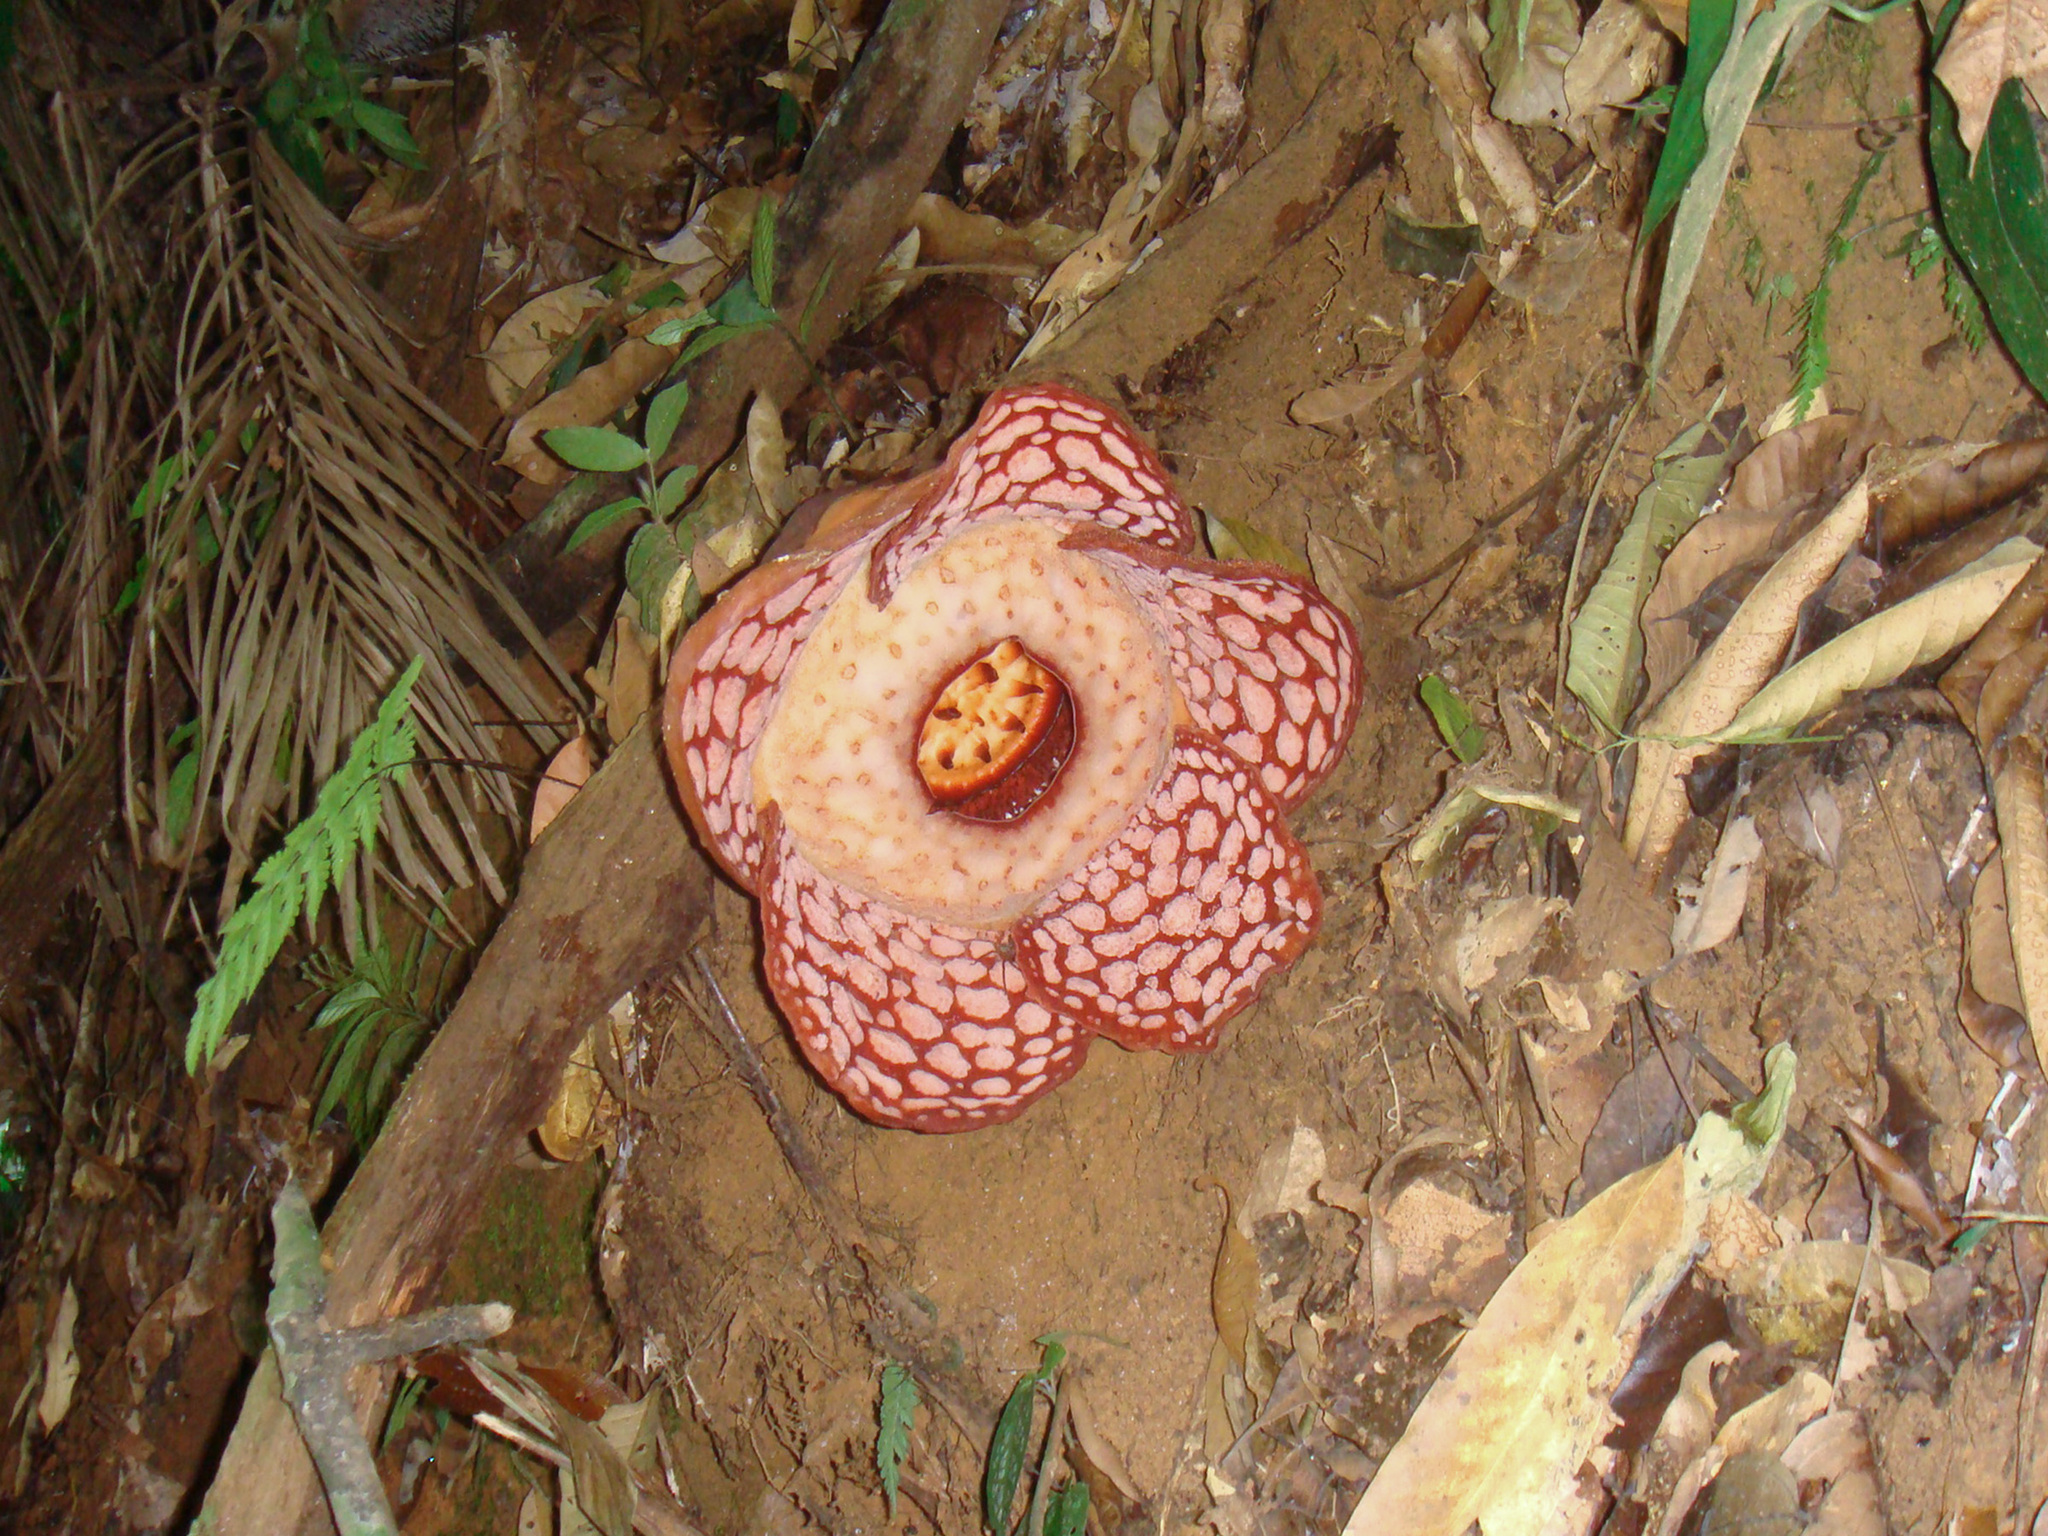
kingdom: Plantae
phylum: Tracheophyta
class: Magnoliopsida
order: Malpighiales
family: Rafflesiaceae
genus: Rafflesia
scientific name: Rafflesia cantleyi
